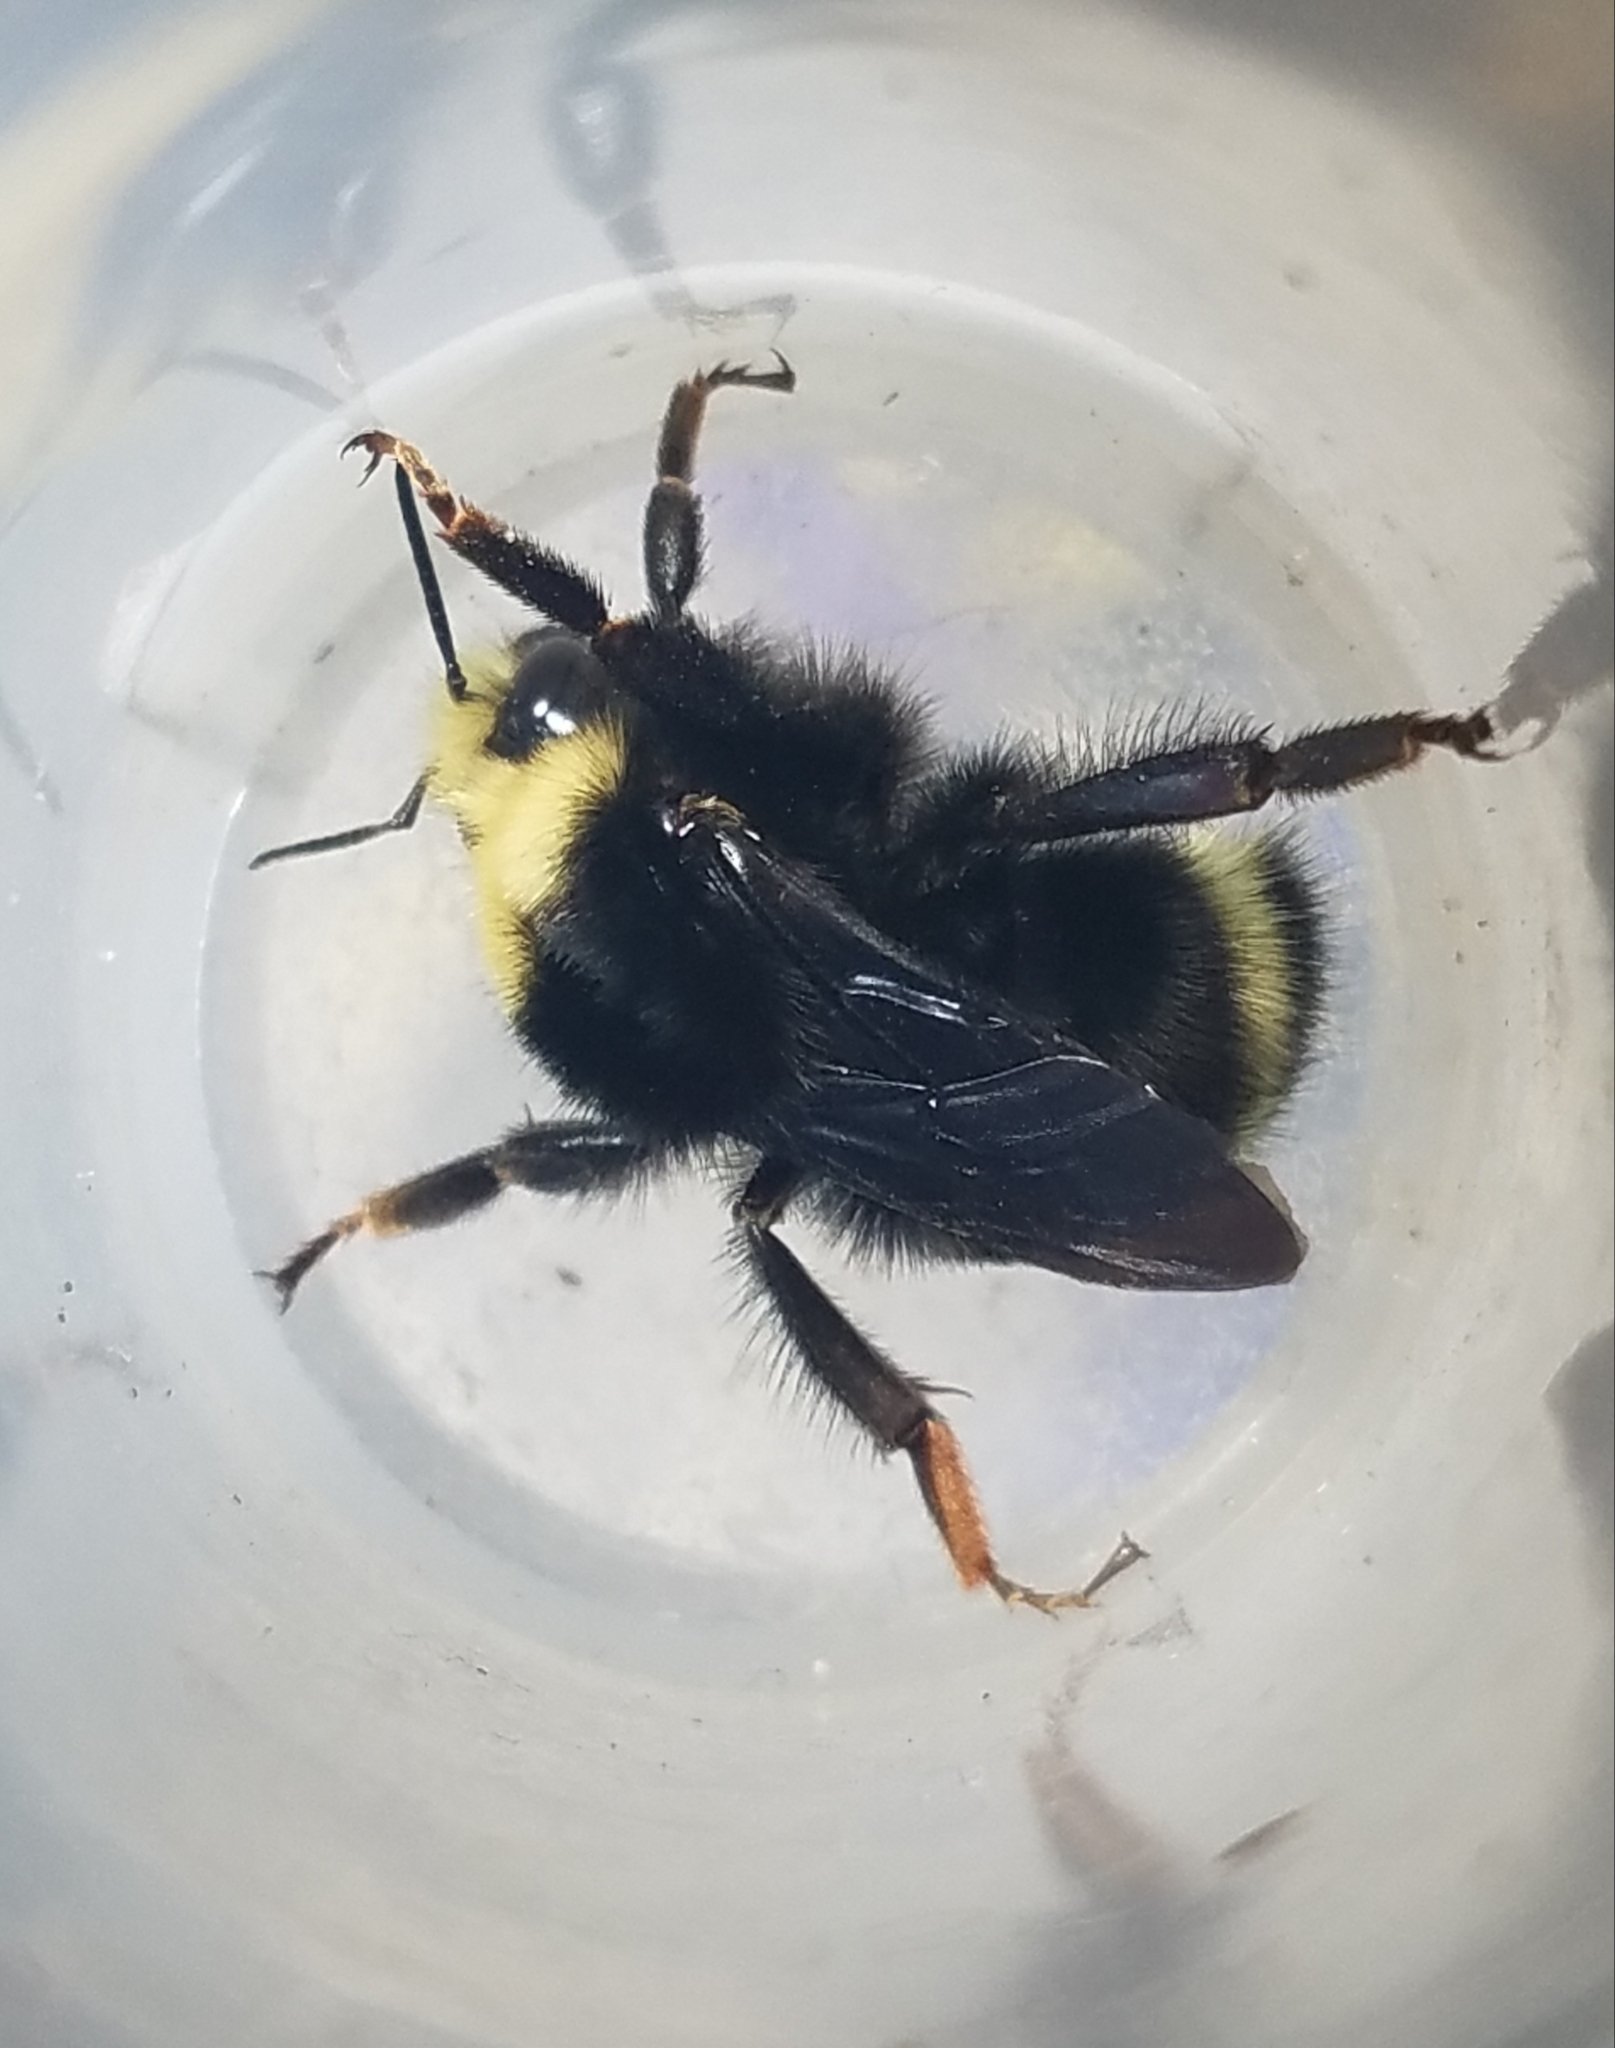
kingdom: Animalia
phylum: Arthropoda
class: Insecta
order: Hymenoptera
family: Apidae
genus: Bombus
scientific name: Bombus vandykei
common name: Van dyke bumble bee
